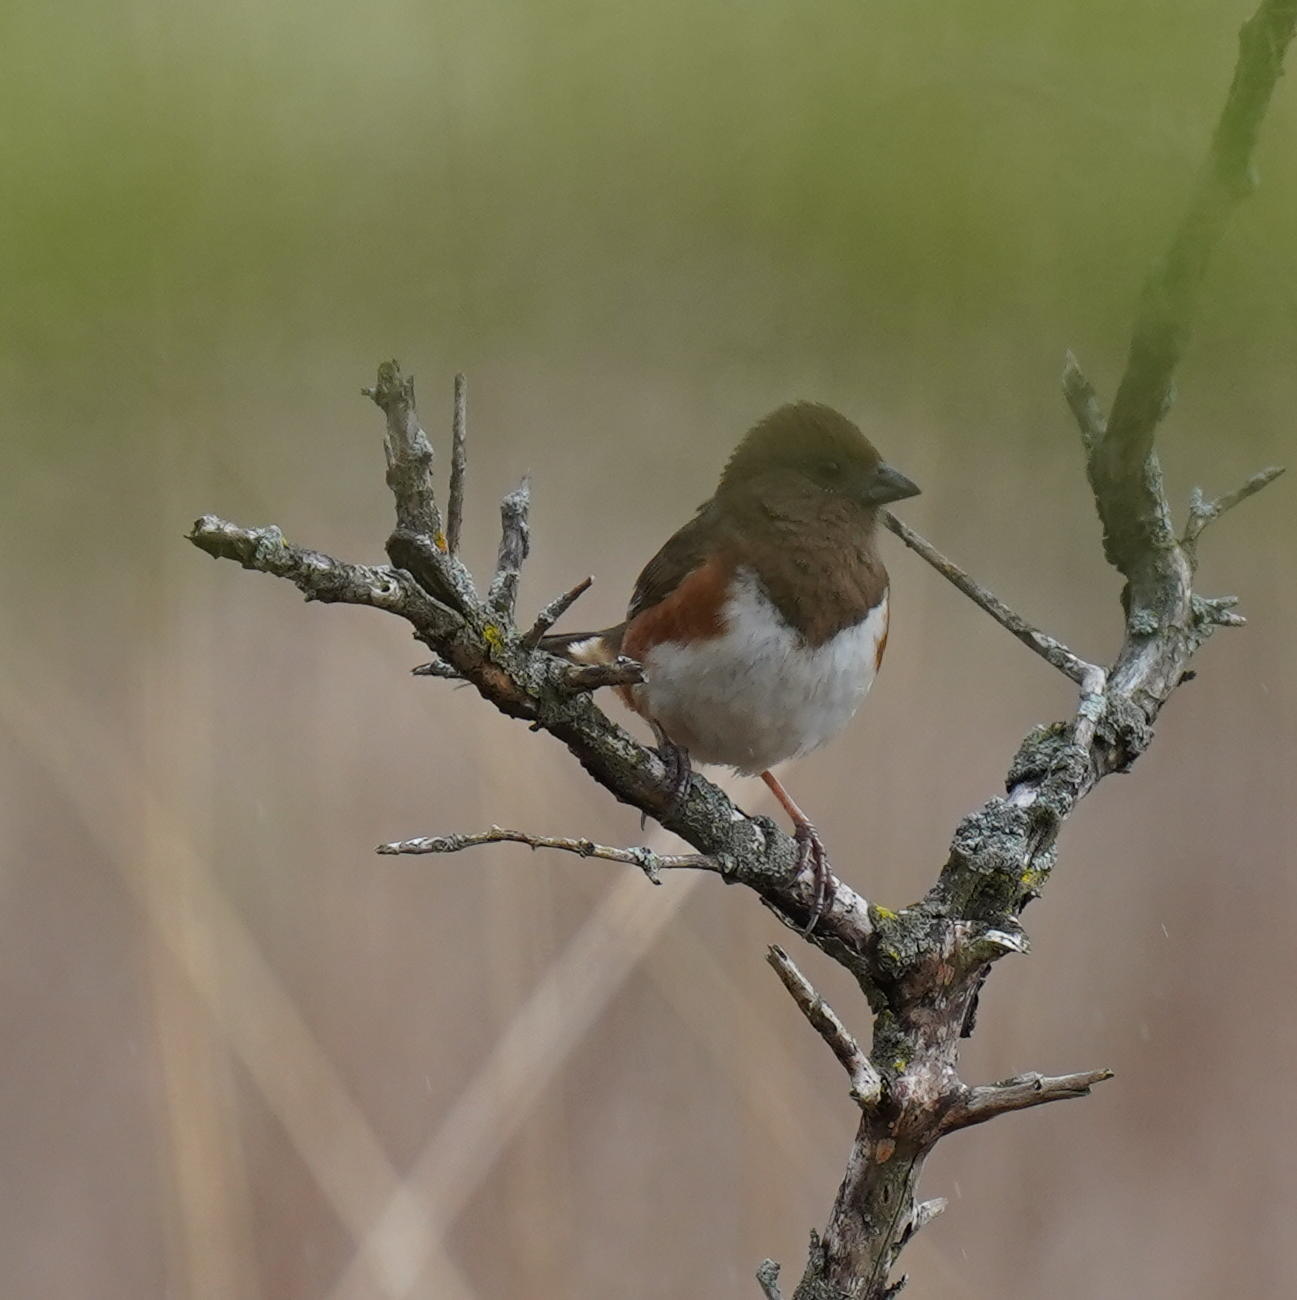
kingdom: Animalia
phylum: Chordata
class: Aves
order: Passeriformes
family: Passerellidae
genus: Pipilo
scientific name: Pipilo erythrophthalmus
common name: Eastern towhee
